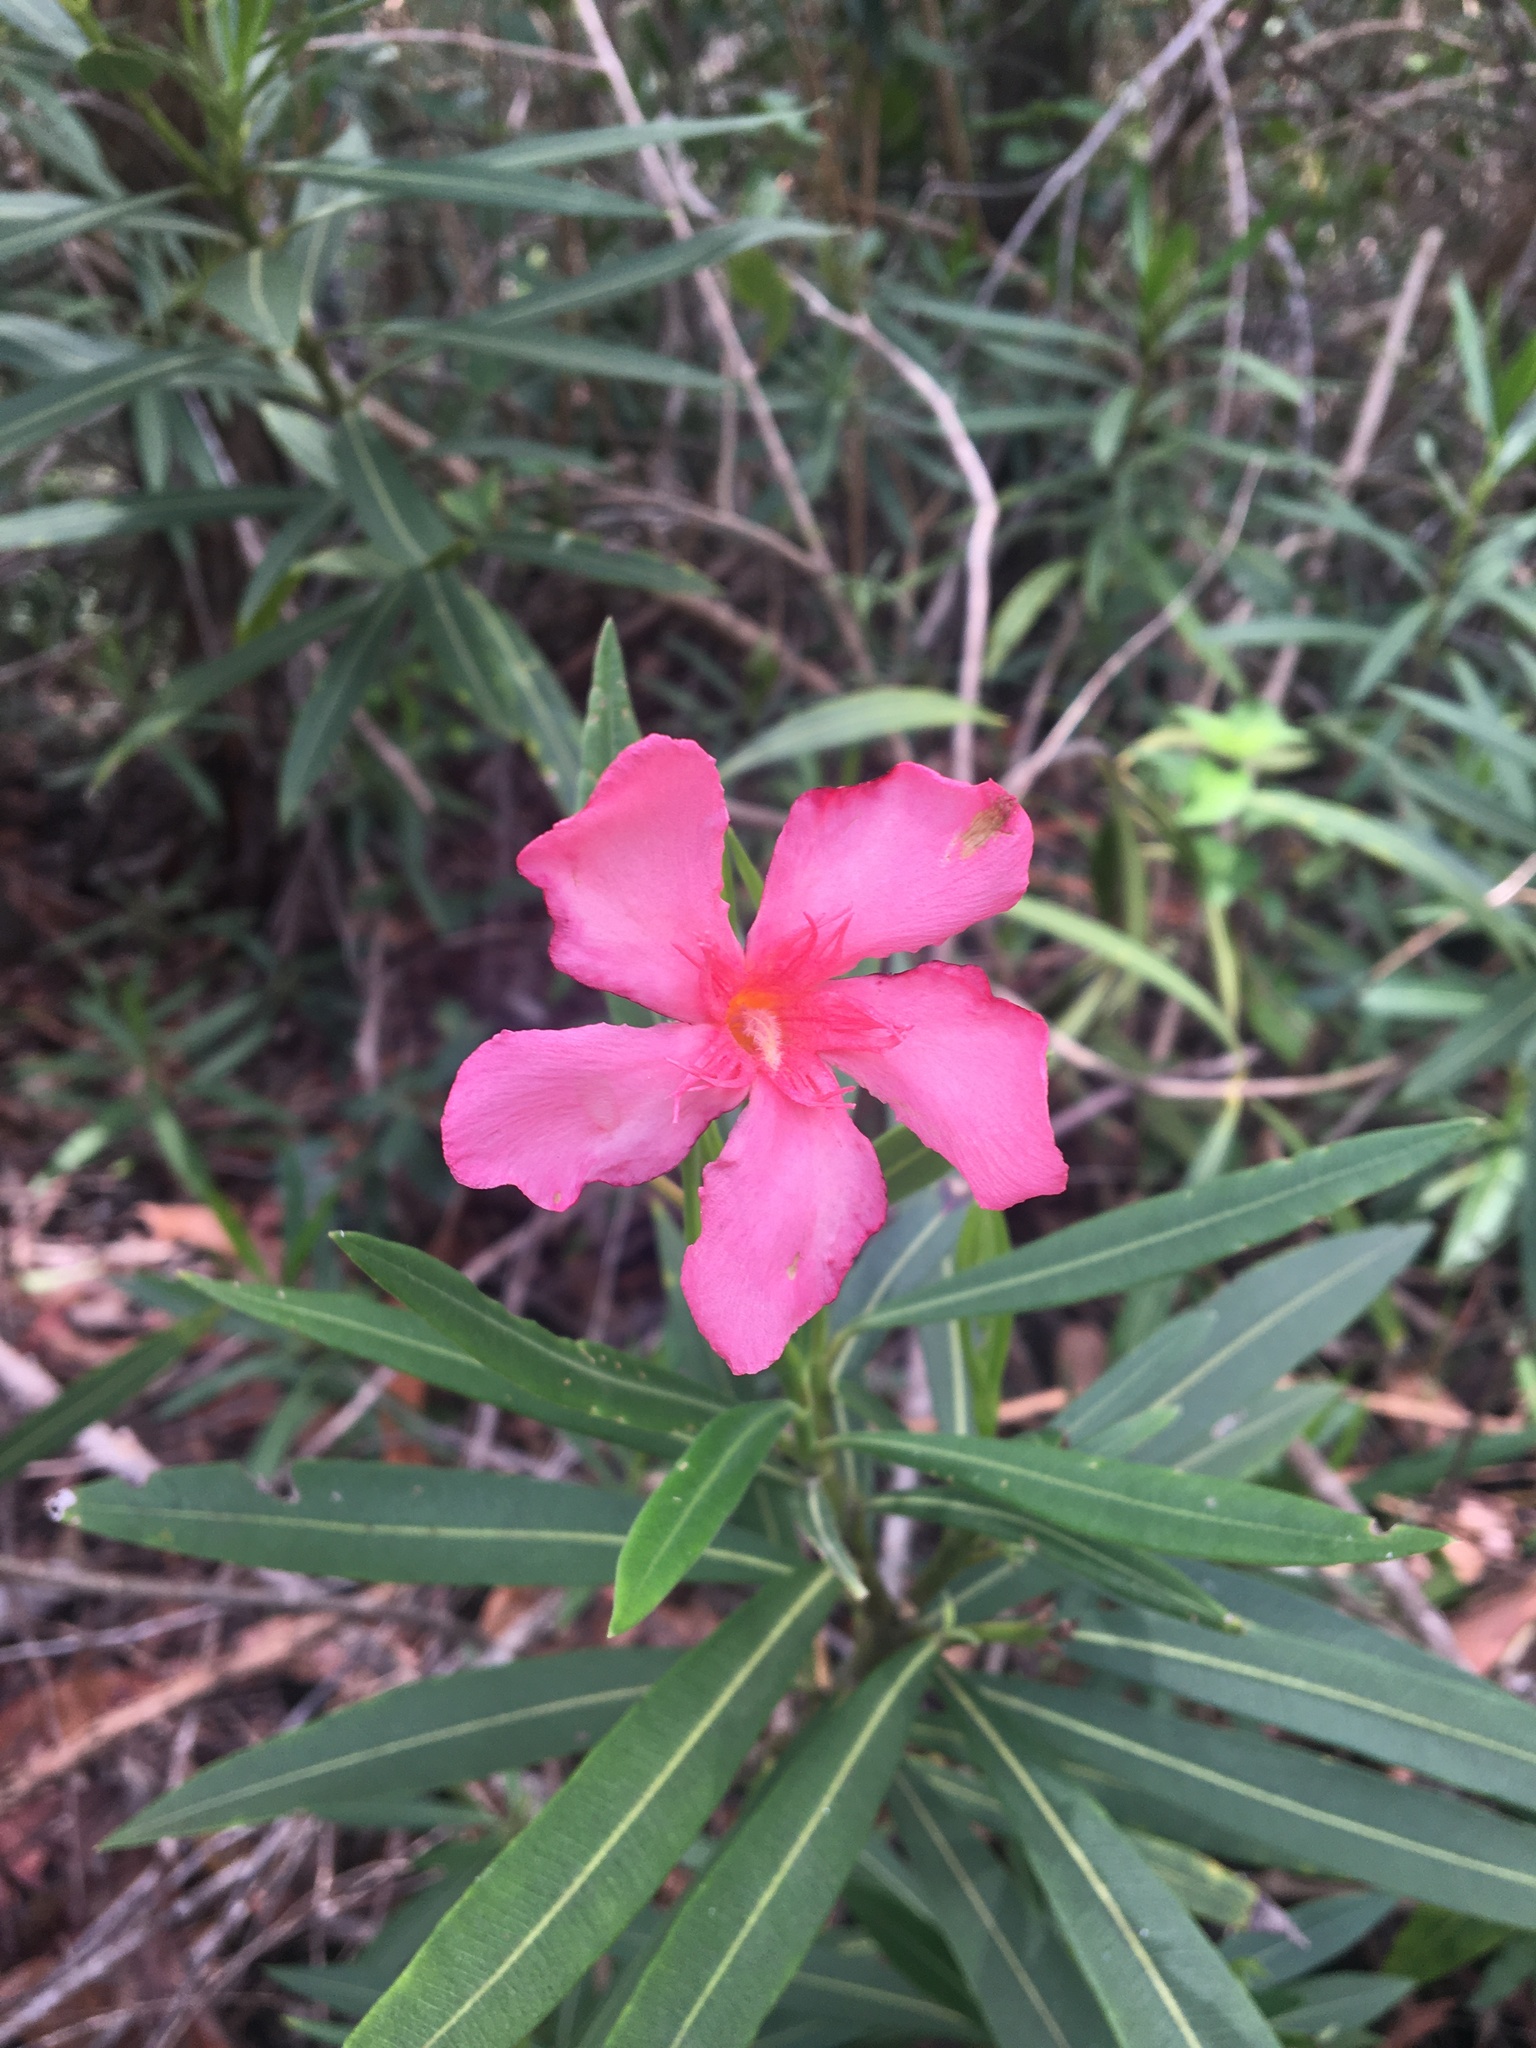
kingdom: Plantae
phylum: Tracheophyta
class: Magnoliopsida
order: Gentianales
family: Apocynaceae
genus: Nerium
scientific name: Nerium oleander
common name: Oleander
